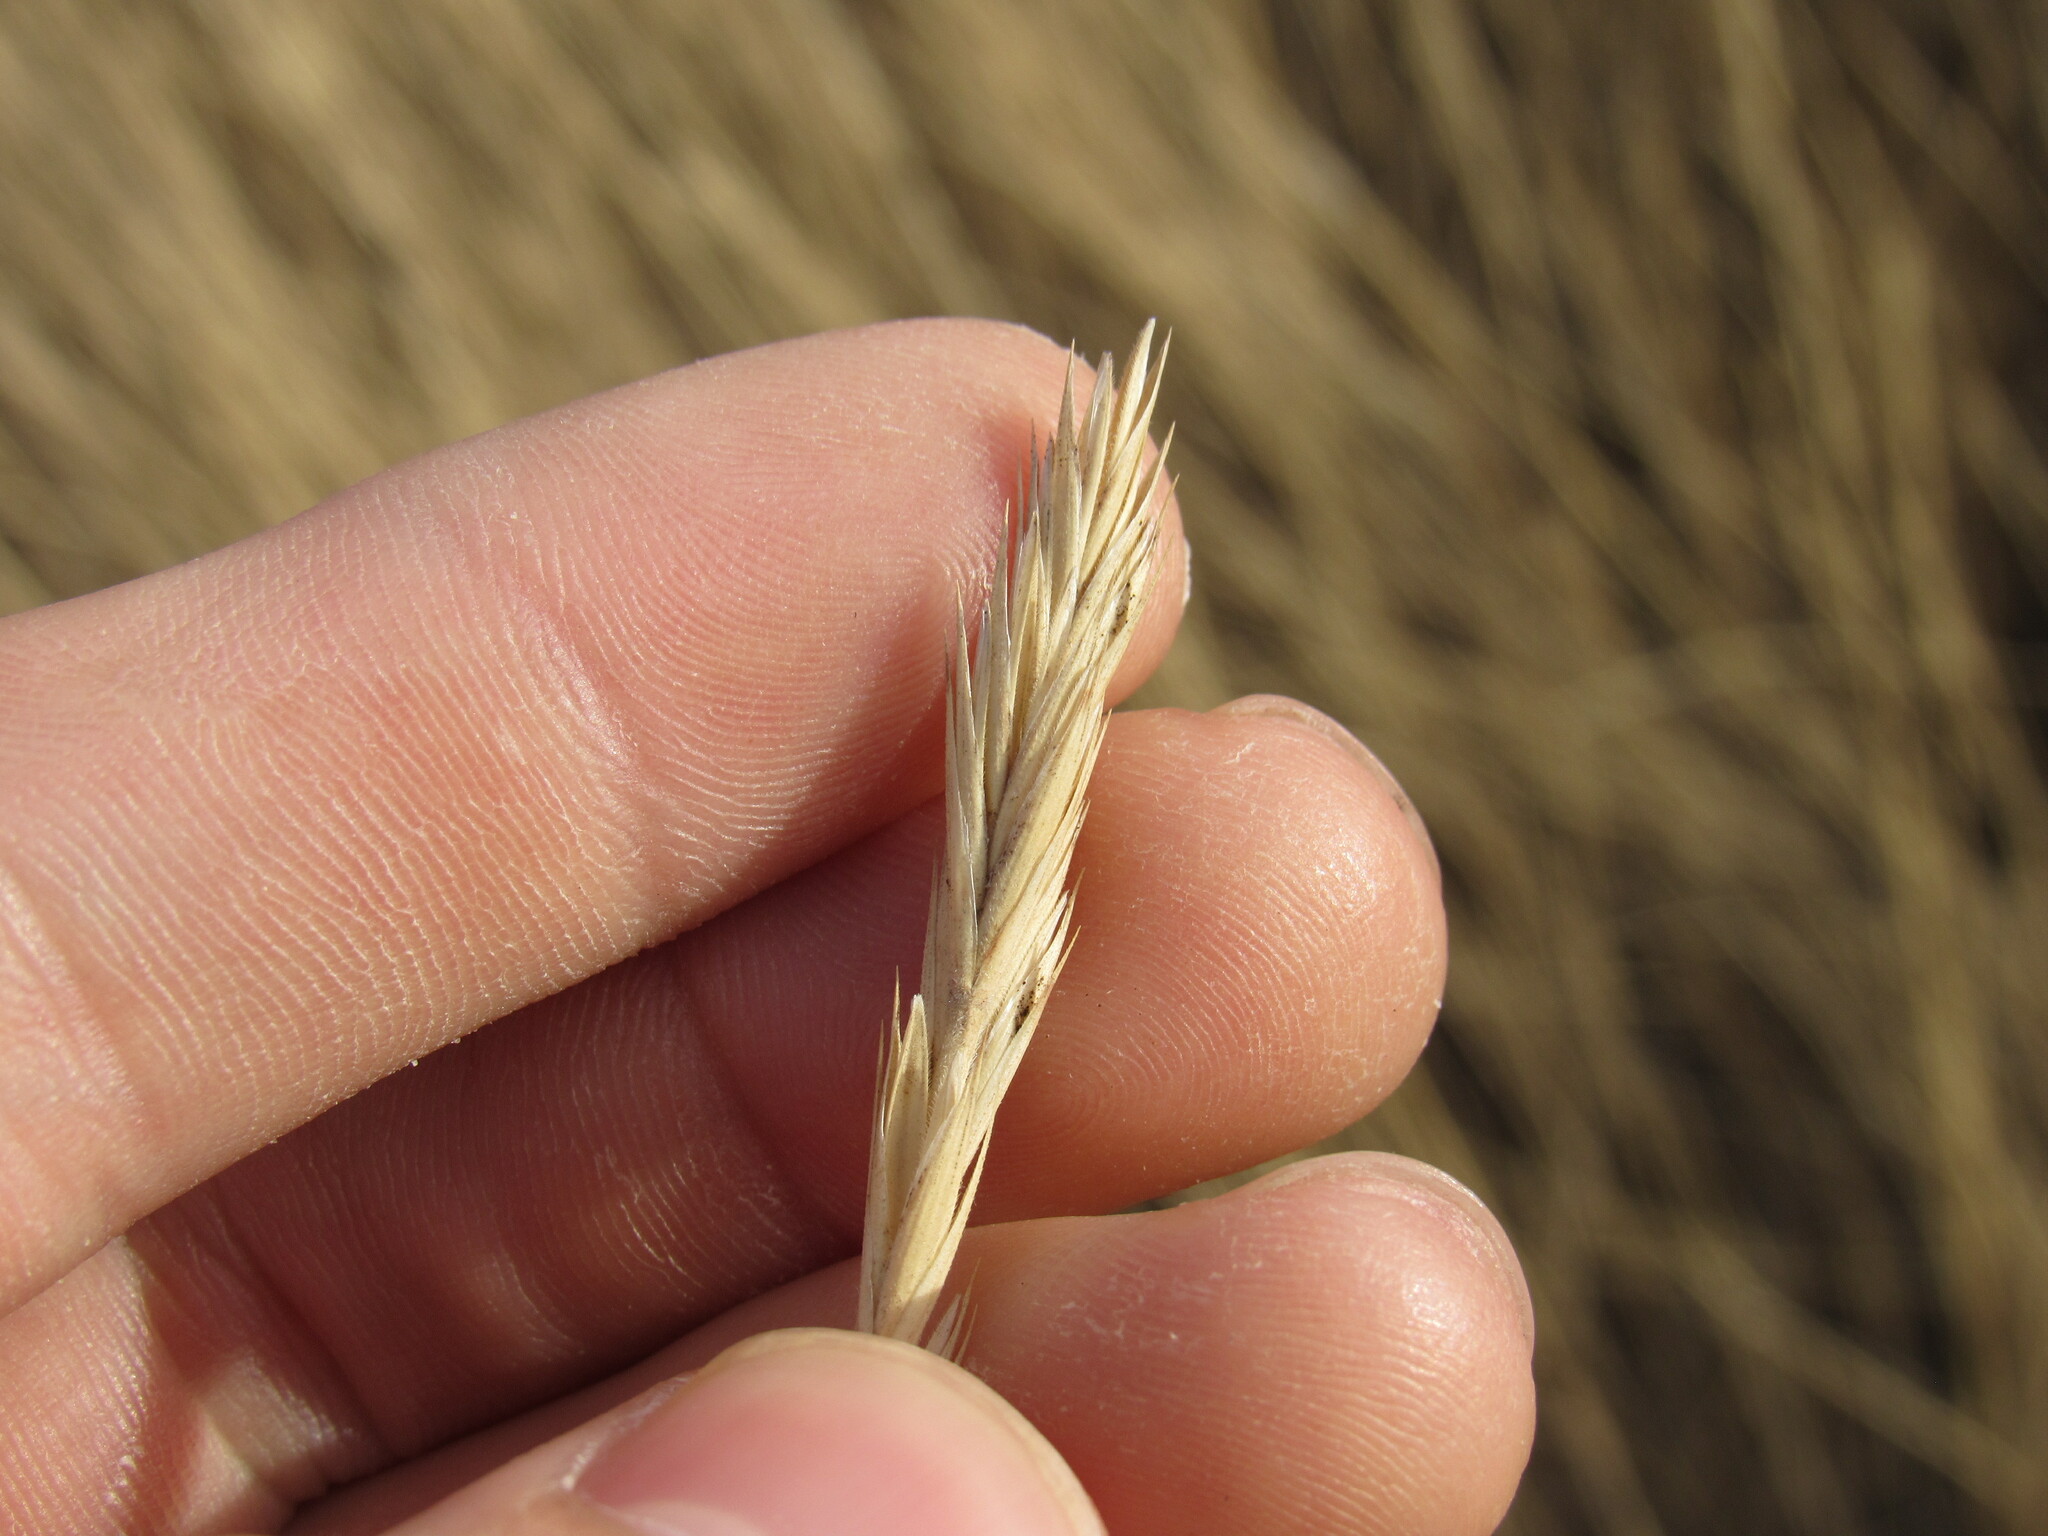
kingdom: Plantae
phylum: Tracheophyta
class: Liliopsida
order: Poales
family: Poaceae
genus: Elymus
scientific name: Elymus smithii
